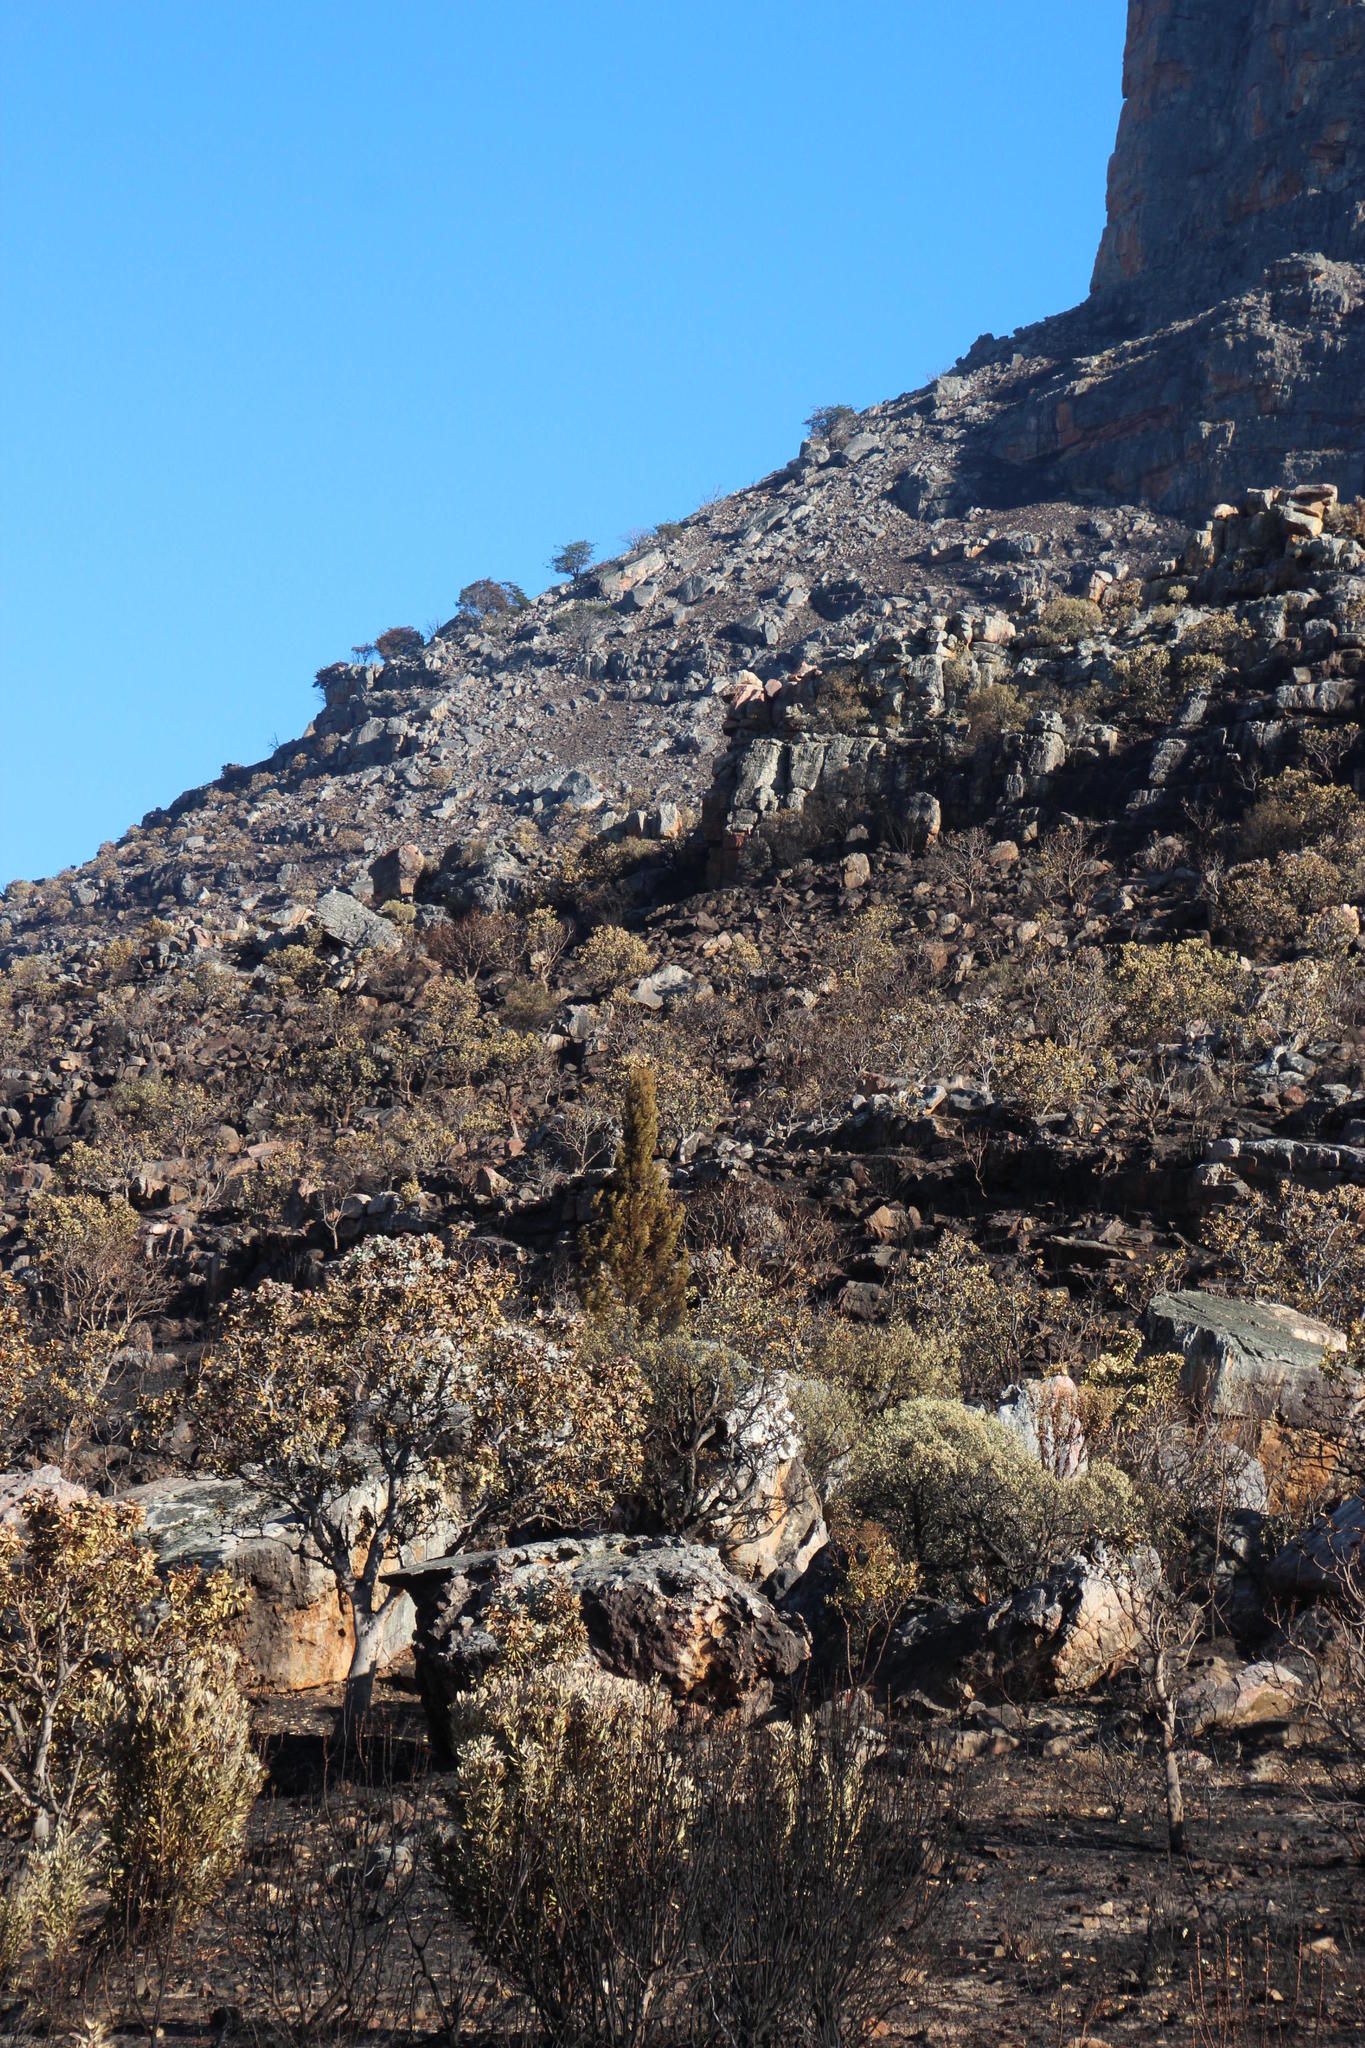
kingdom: Plantae
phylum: Tracheophyta
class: Pinopsida
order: Pinales
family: Cupressaceae
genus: Widdringtonia
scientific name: Widdringtonia nodiflora
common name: Cape cypress
